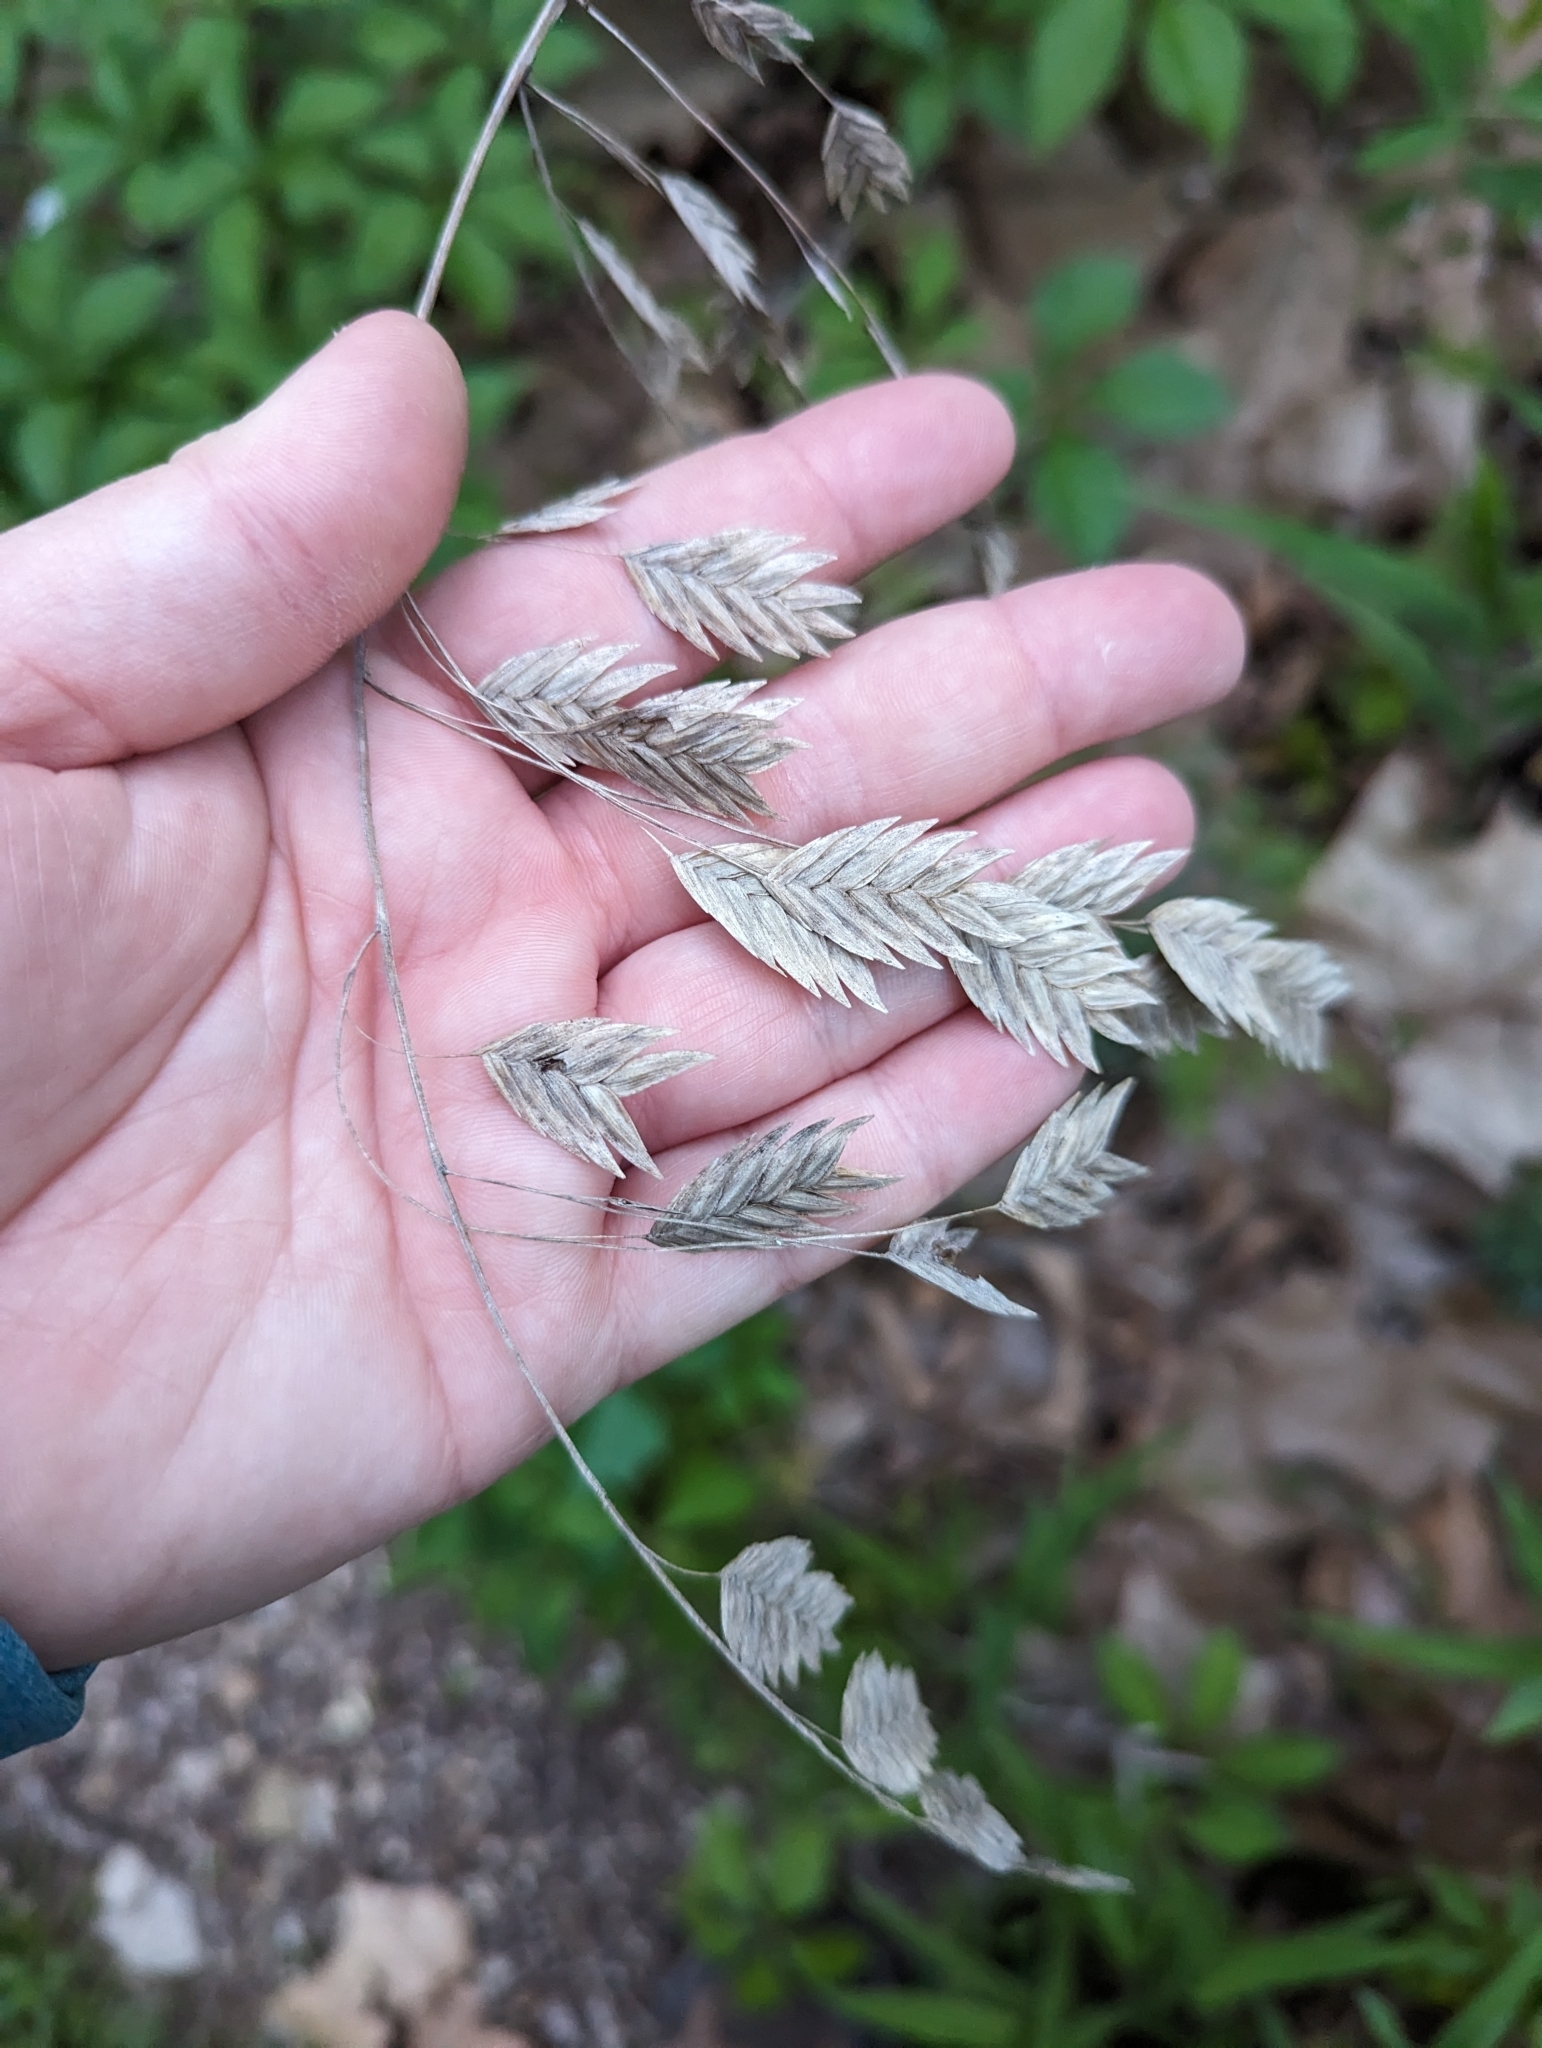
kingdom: Plantae
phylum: Tracheophyta
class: Liliopsida
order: Poales
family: Poaceae
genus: Chasmanthium
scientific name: Chasmanthium latifolium
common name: Broad-leaved chasmanthium
